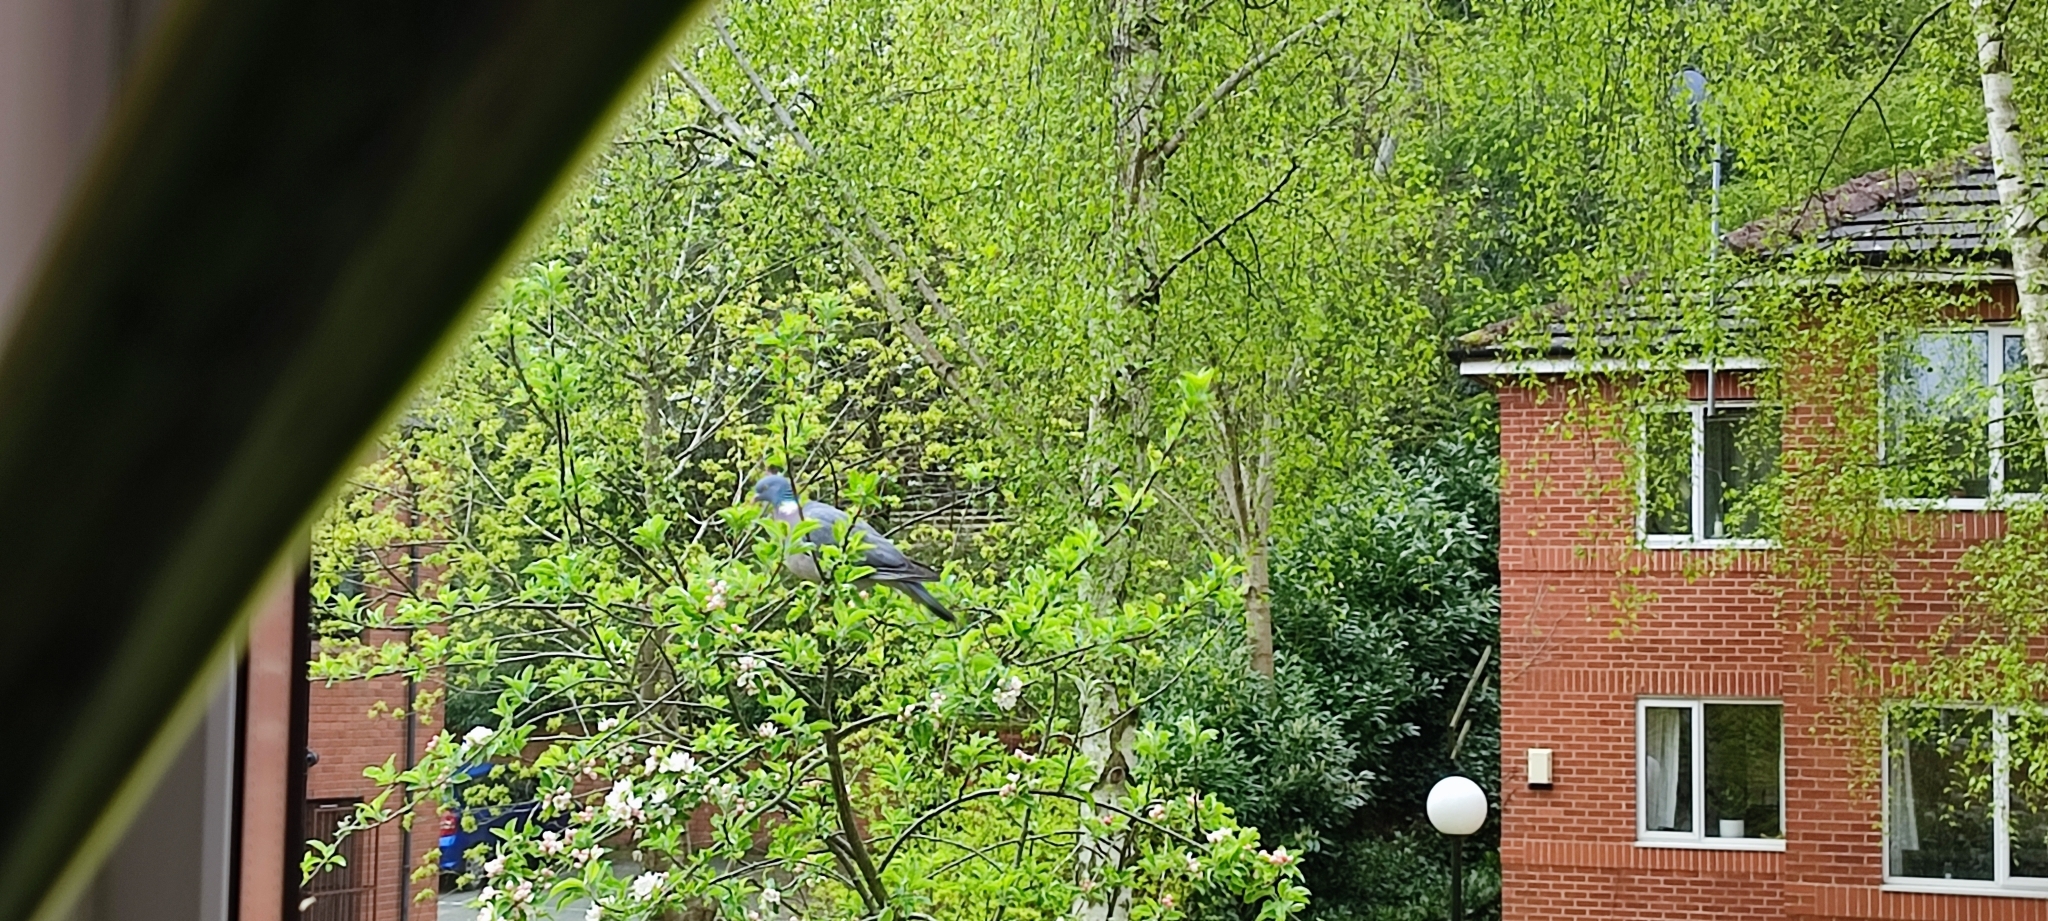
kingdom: Animalia
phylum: Chordata
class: Aves
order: Columbiformes
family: Columbidae
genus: Columba
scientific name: Columba palumbus
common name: Common wood pigeon
